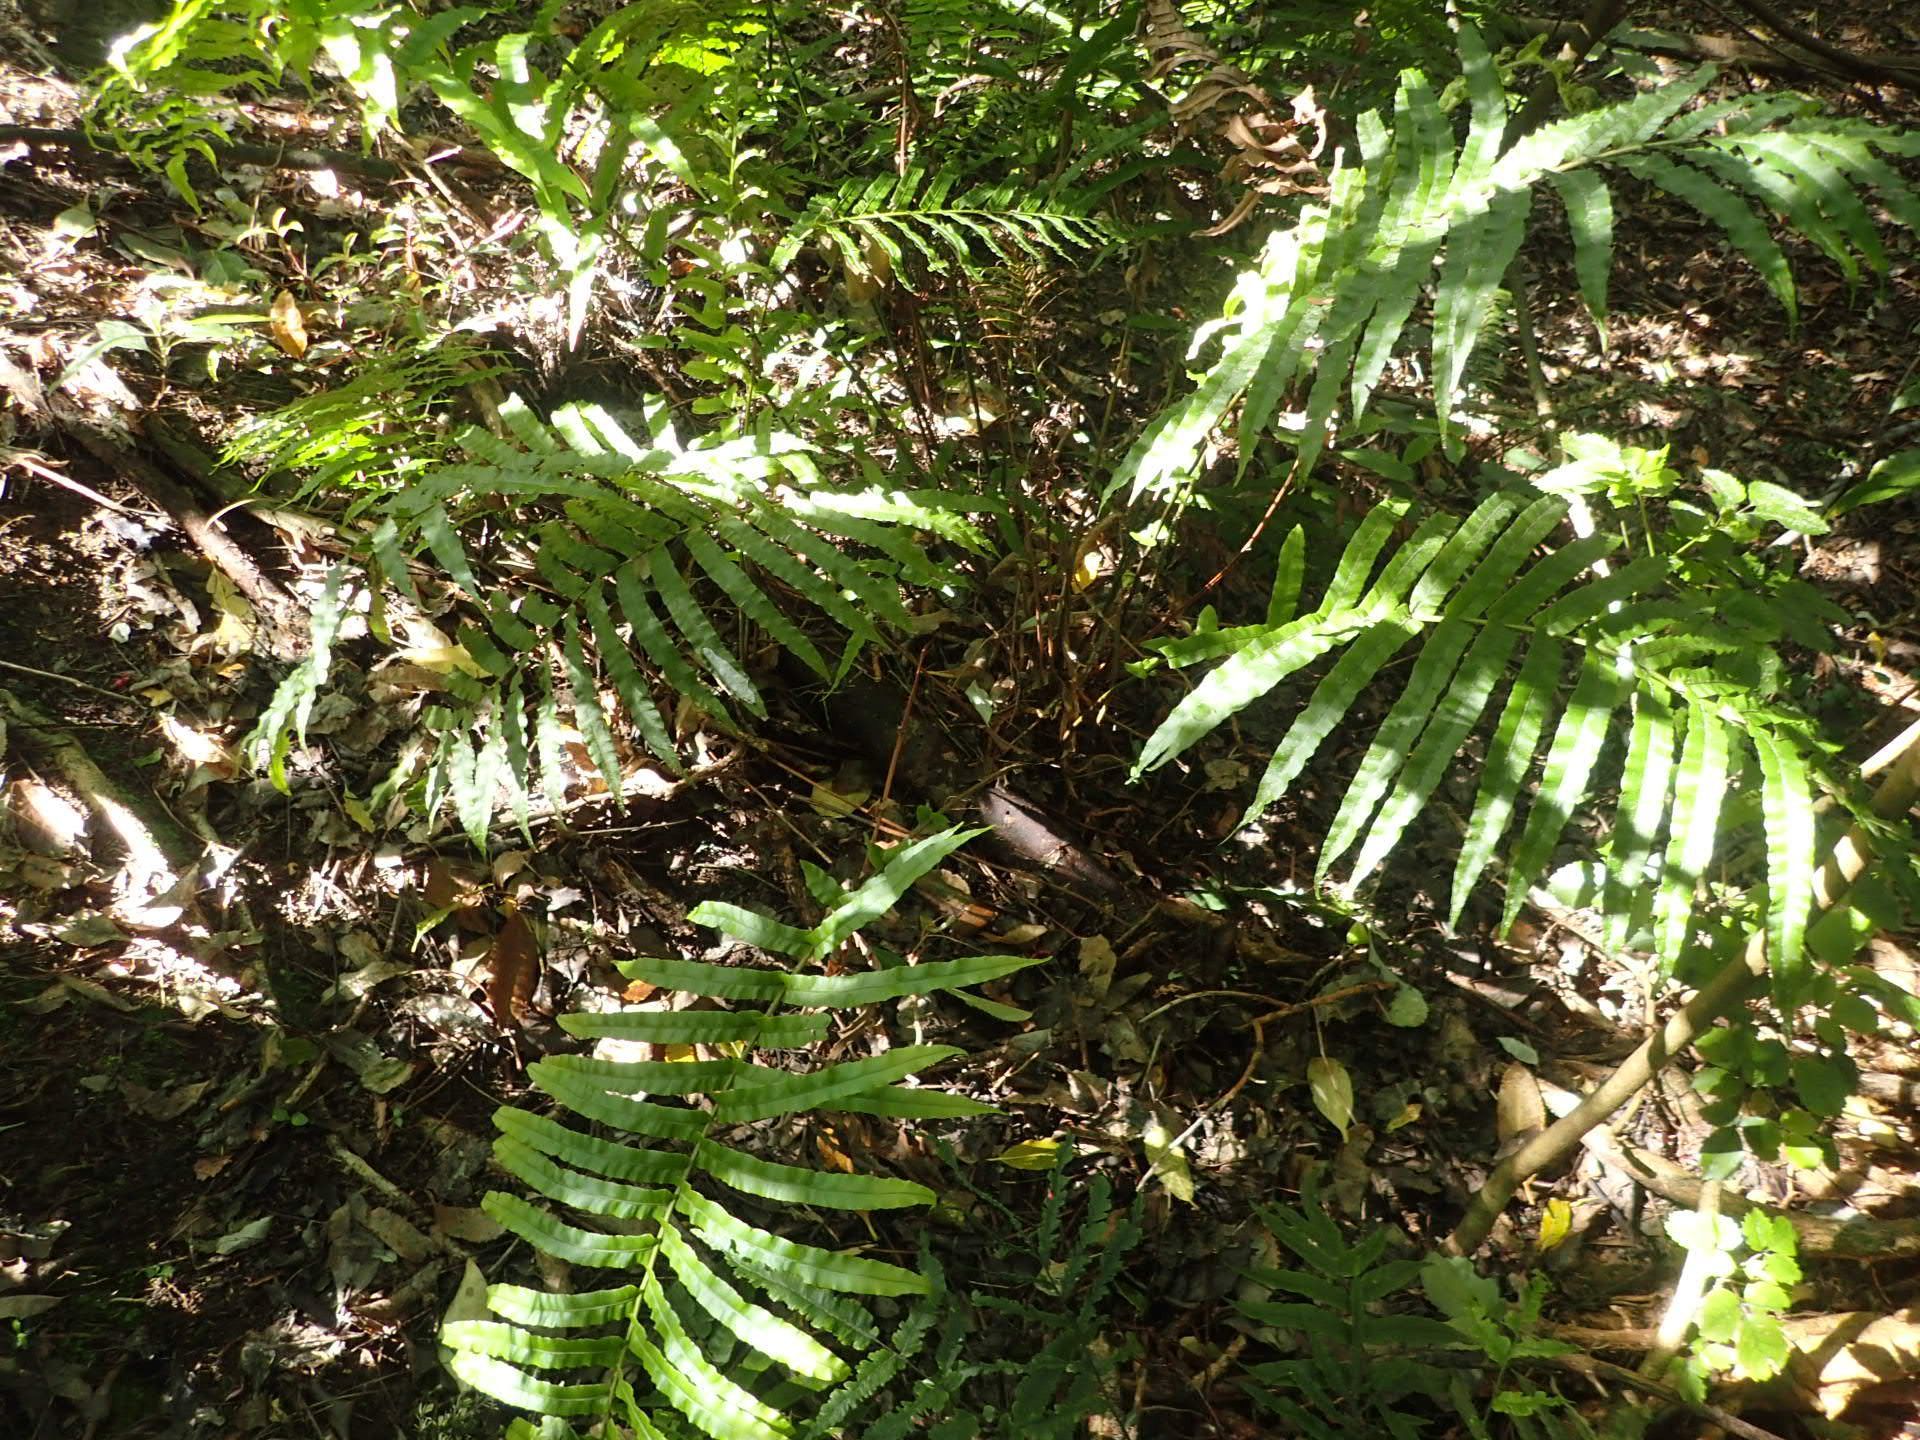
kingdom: Plantae
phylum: Tracheophyta
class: Polypodiopsida
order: Polypodiales
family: Blechnaceae
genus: Parablechnum
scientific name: Parablechnum novae-zelandiae
